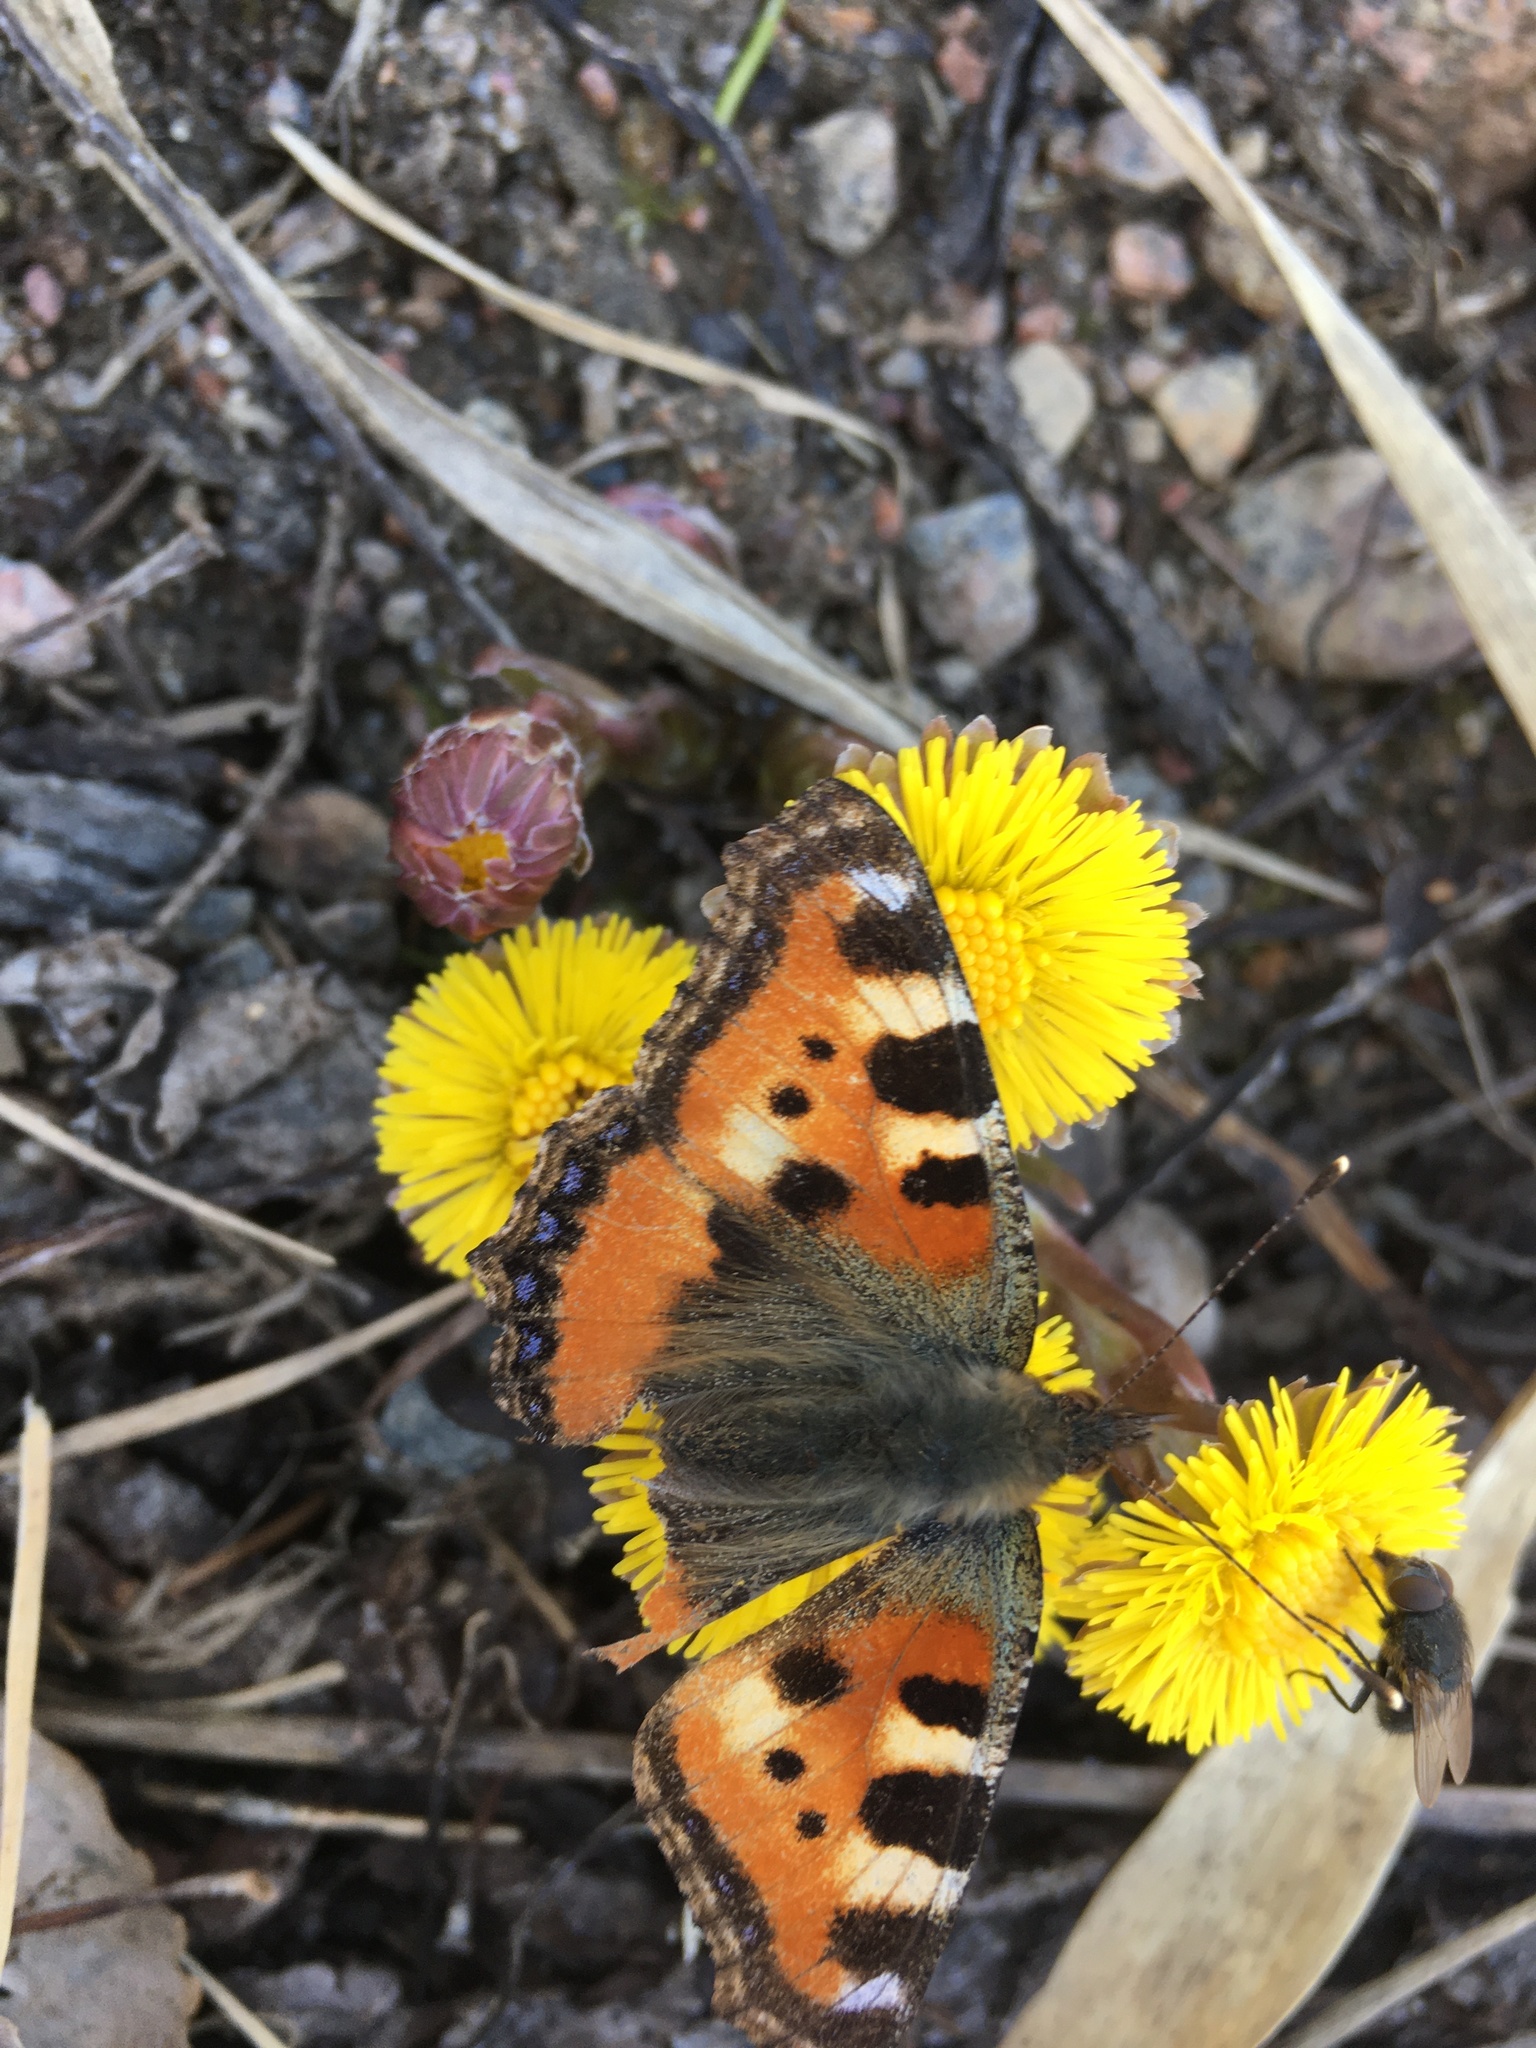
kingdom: Animalia
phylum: Arthropoda
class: Insecta
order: Lepidoptera
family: Nymphalidae
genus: Aglais
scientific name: Aglais urticae
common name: Small tortoiseshell
